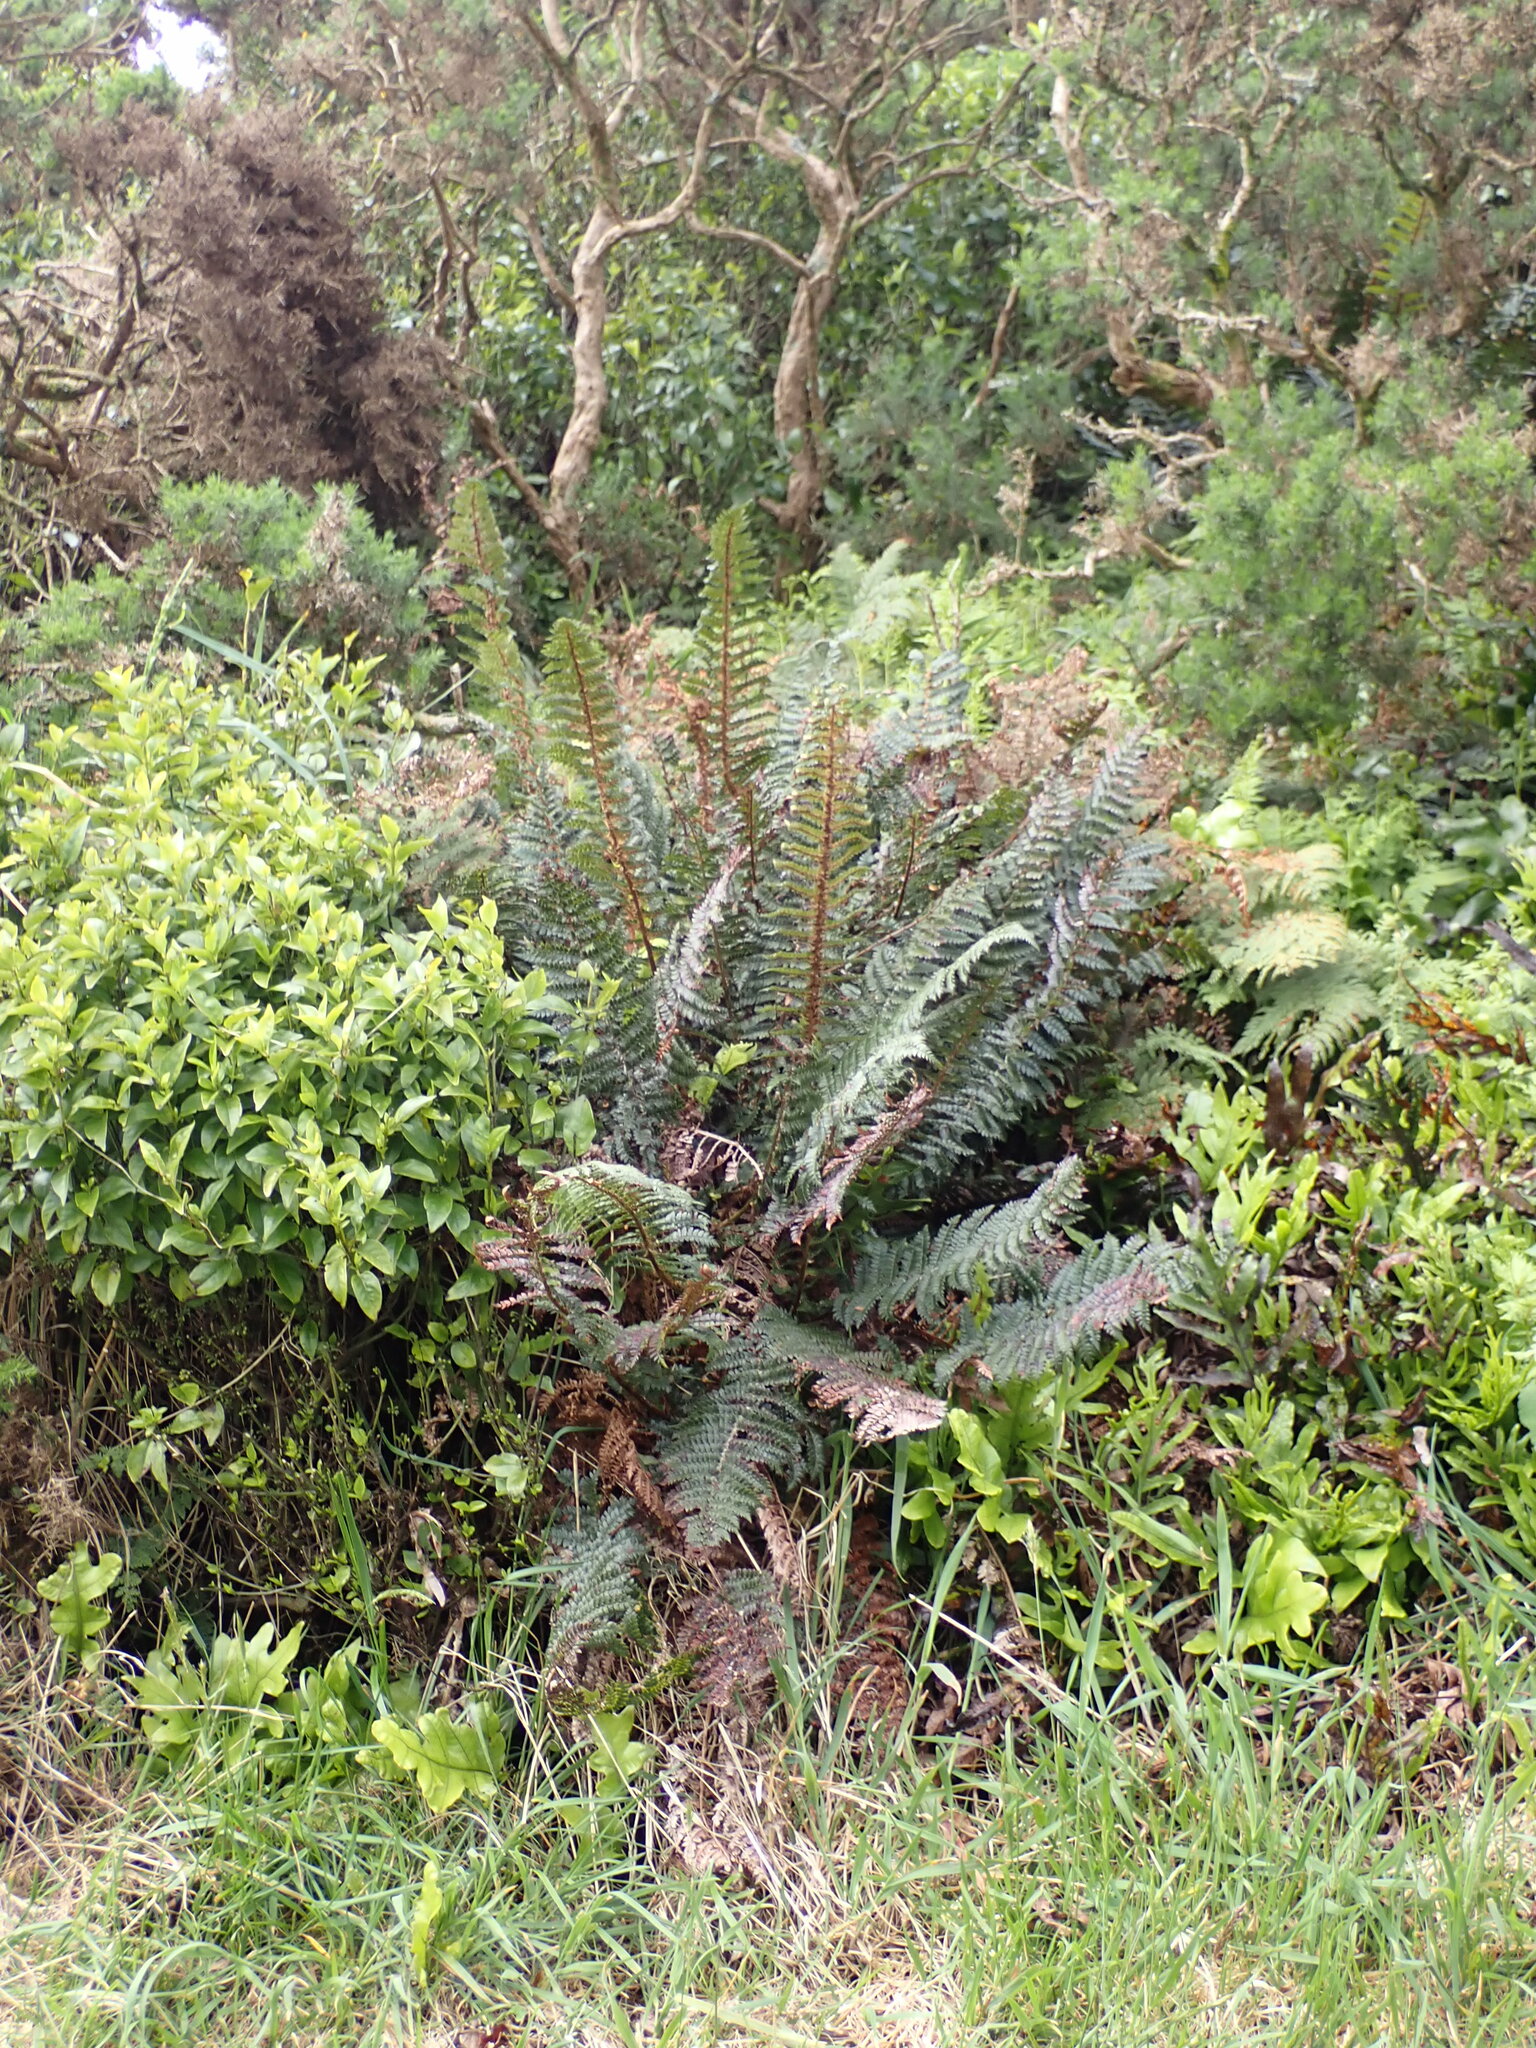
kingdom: Plantae
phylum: Tracheophyta
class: Polypodiopsida
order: Polypodiales
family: Dryopteridaceae
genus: Polystichum
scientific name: Polystichum vestitum
